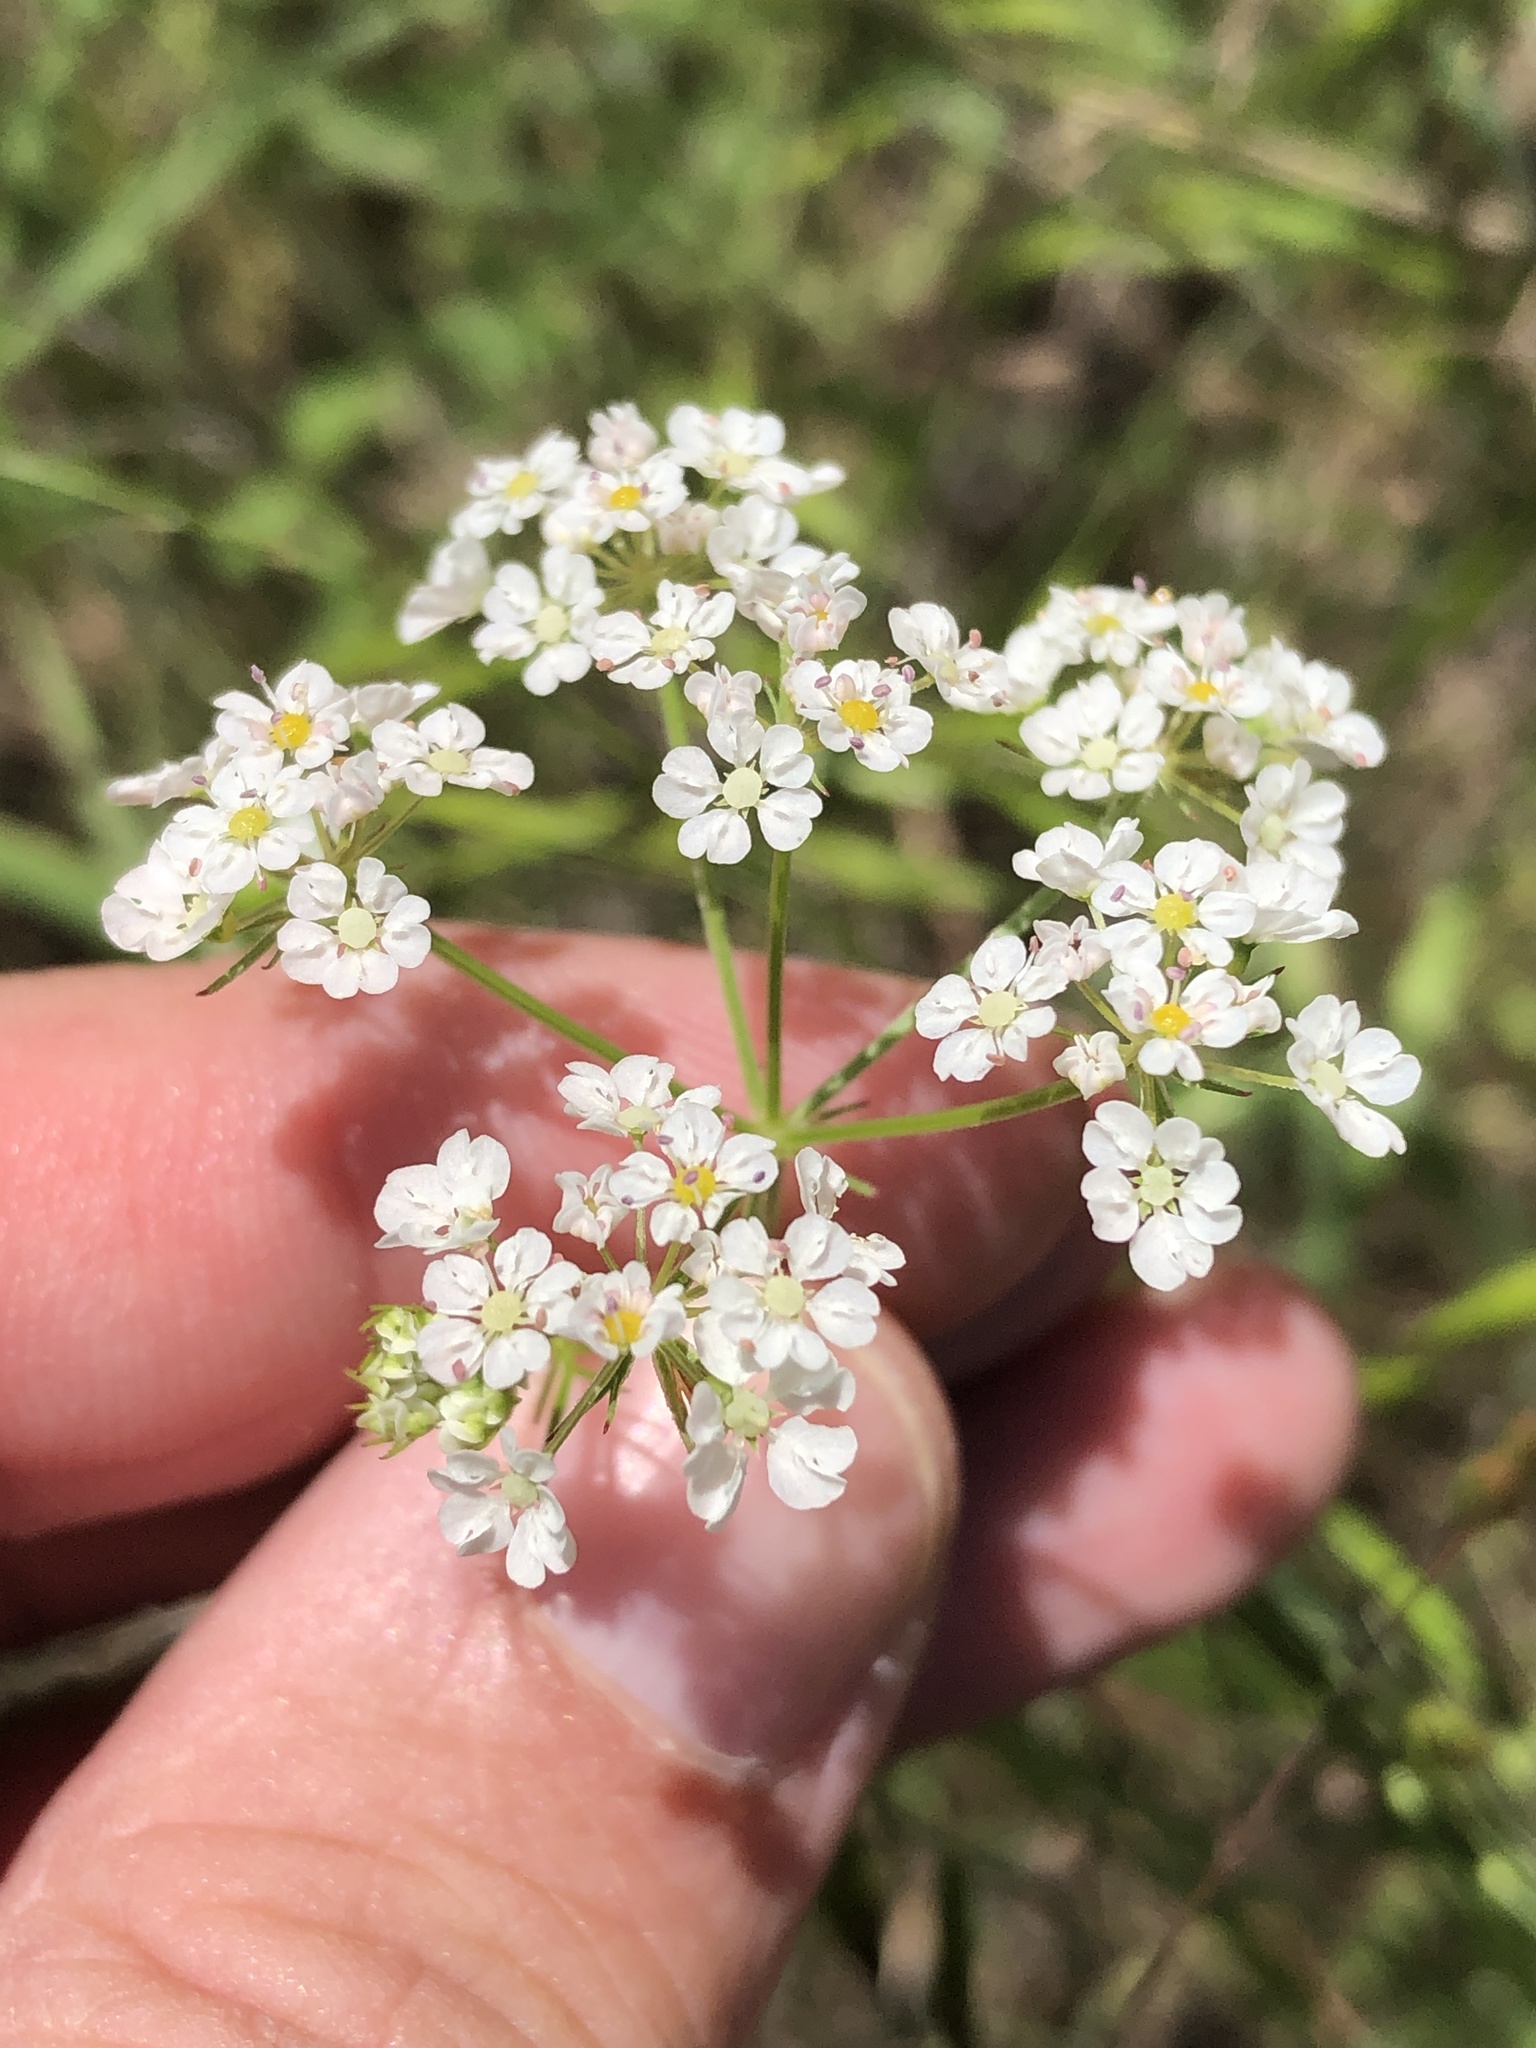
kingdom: Plantae
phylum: Tracheophyta
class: Magnoliopsida
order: Apiales
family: Apiaceae
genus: Atrema
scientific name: Atrema americanum
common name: Prairie-bishop
